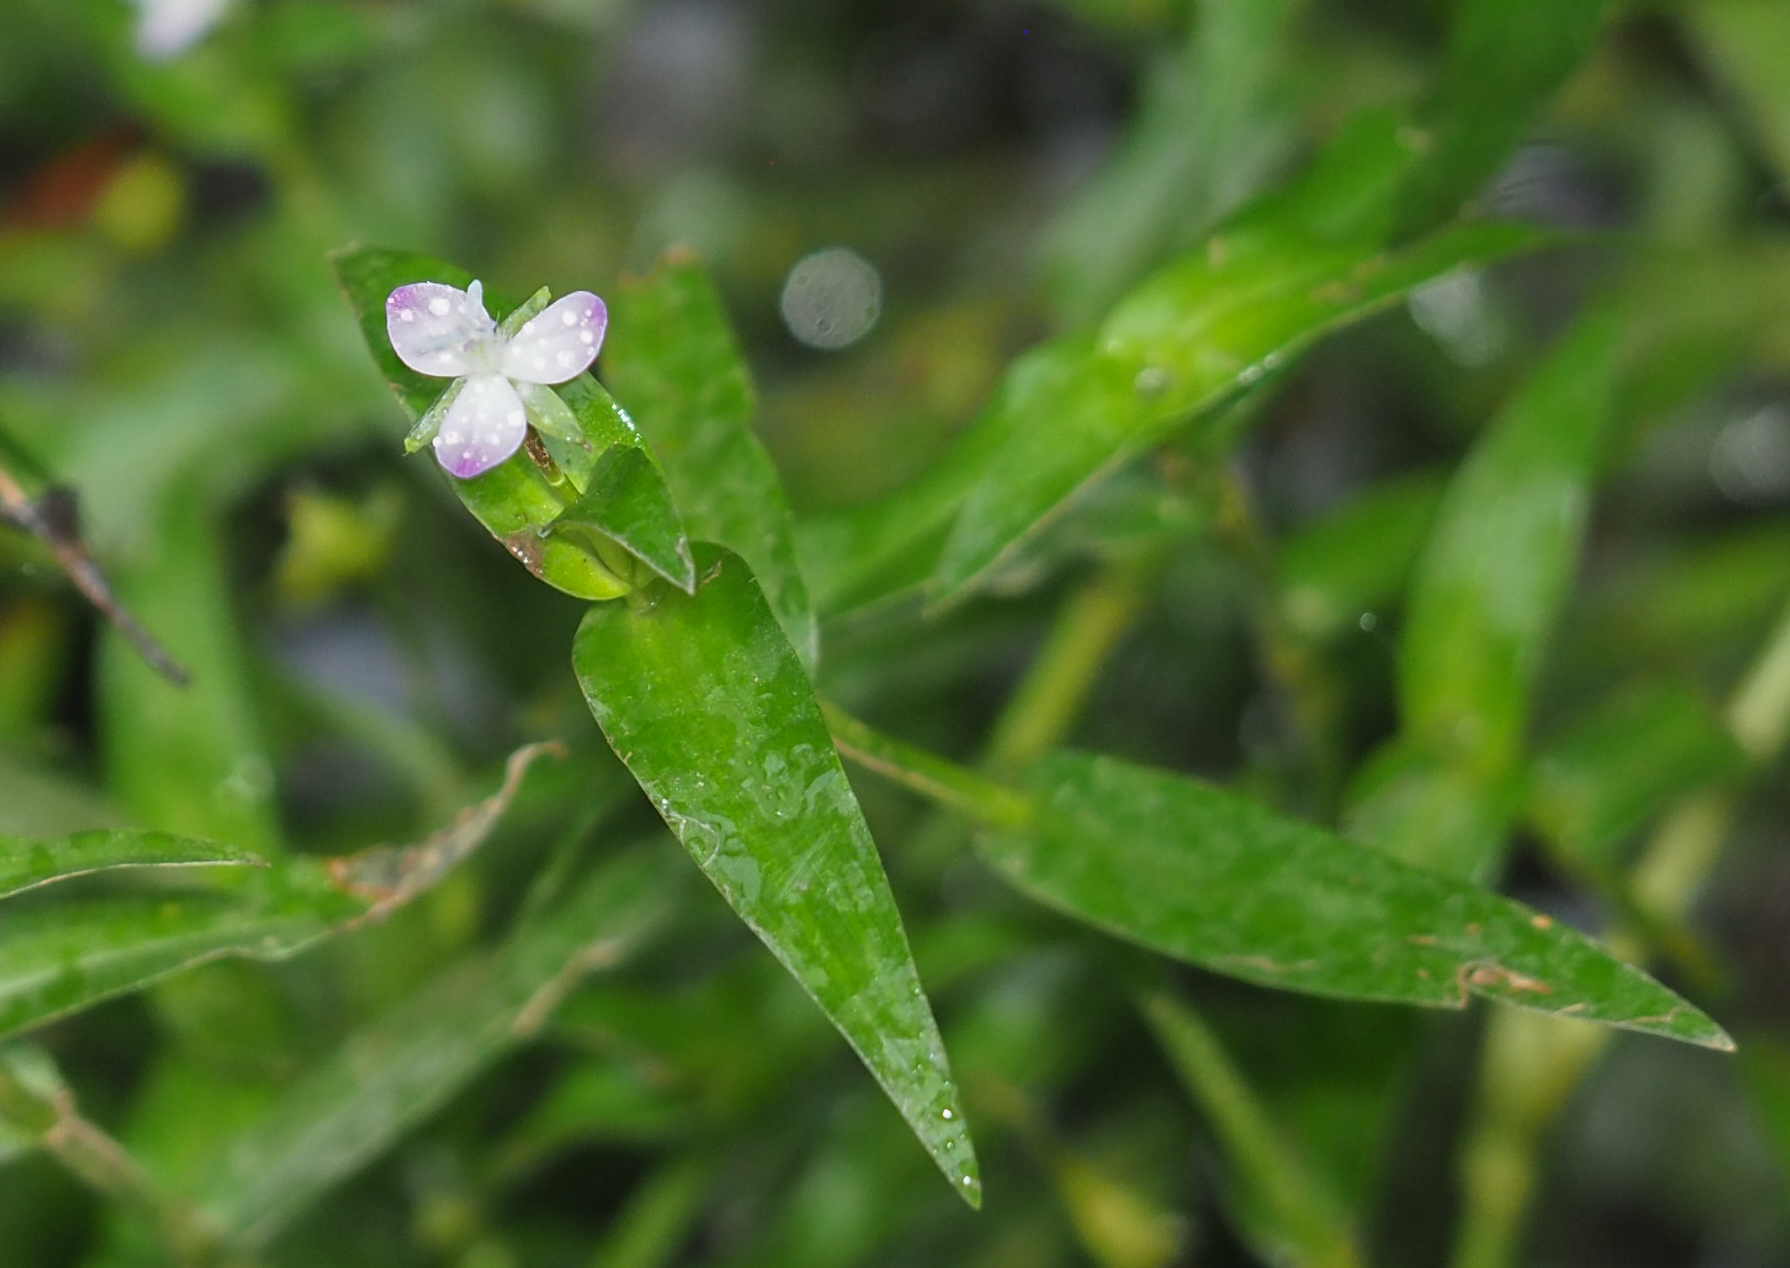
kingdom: Plantae
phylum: Tracheophyta
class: Liliopsida
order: Commelinales
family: Commelinaceae
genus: Murdannia
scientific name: Murdannia keisak
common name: Wartremoving herb
